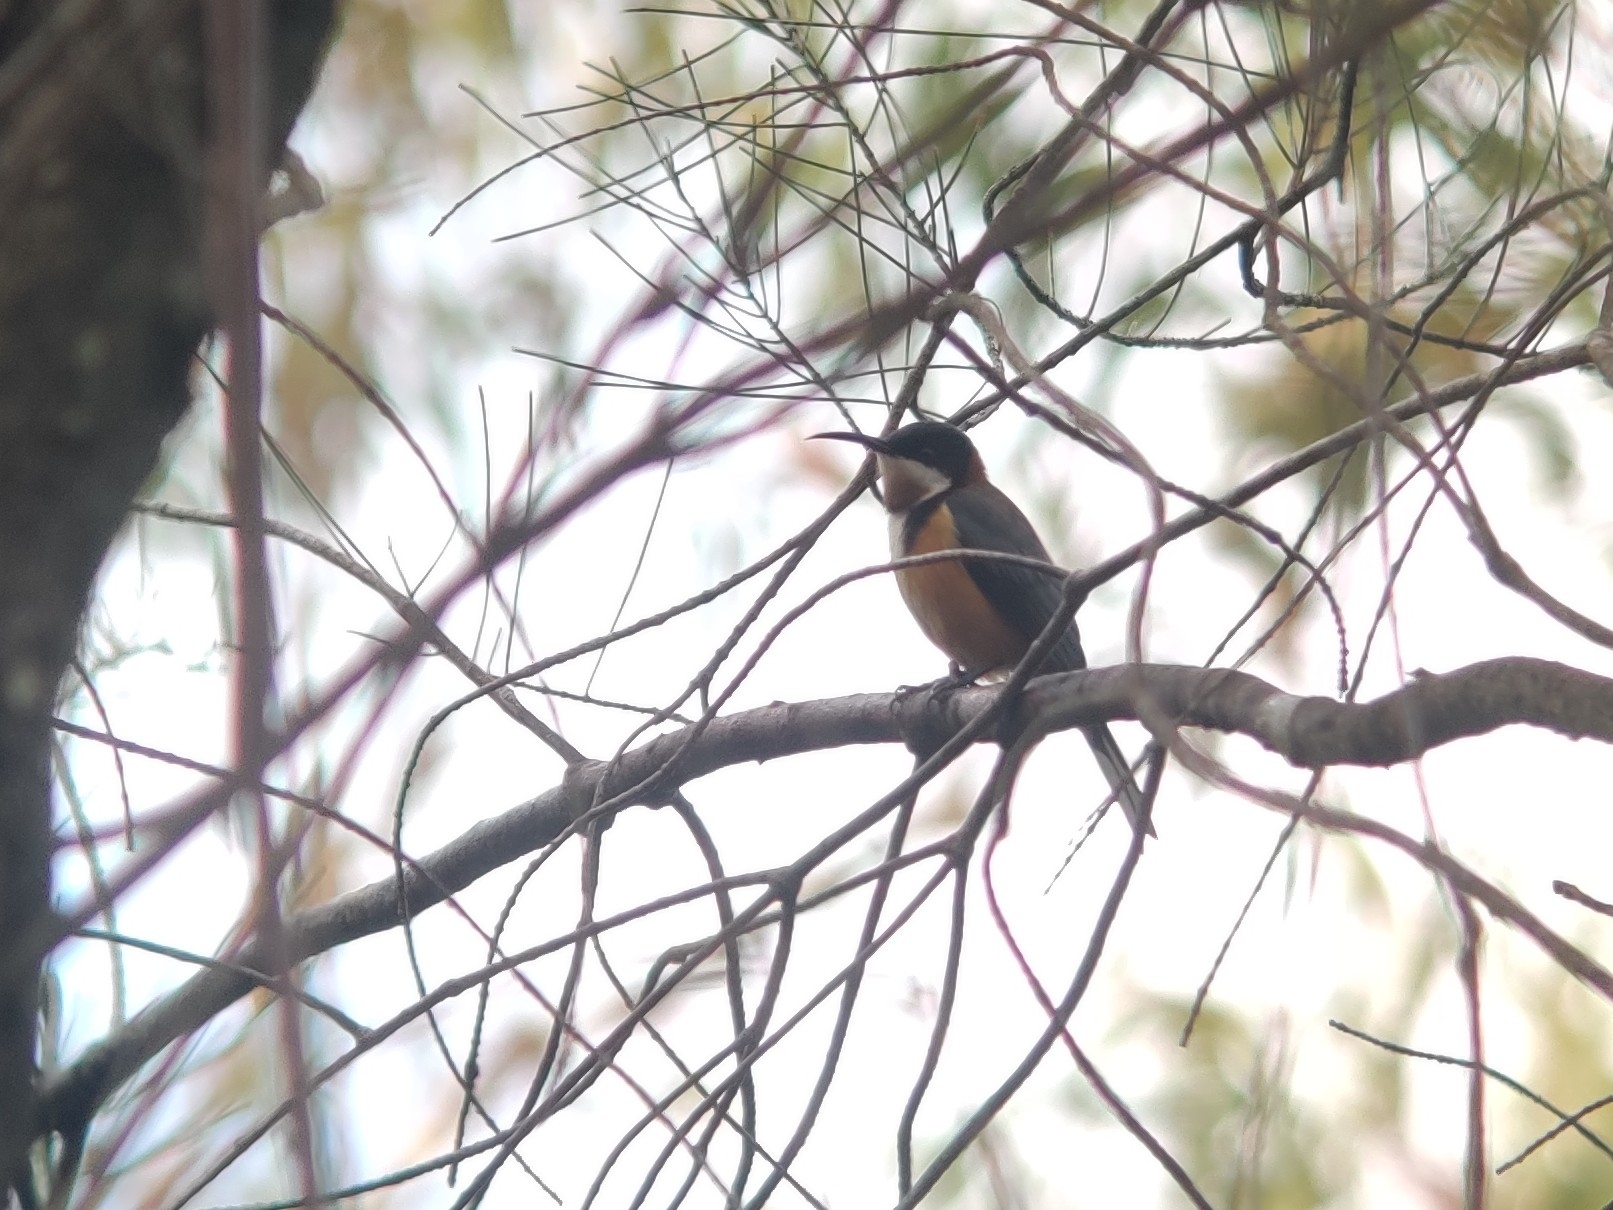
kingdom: Animalia
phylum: Chordata
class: Aves
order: Passeriformes
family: Meliphagidae
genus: Acanthorhynchus
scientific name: Acanthorhynchus tenuirostris
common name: Eastern spinebill
